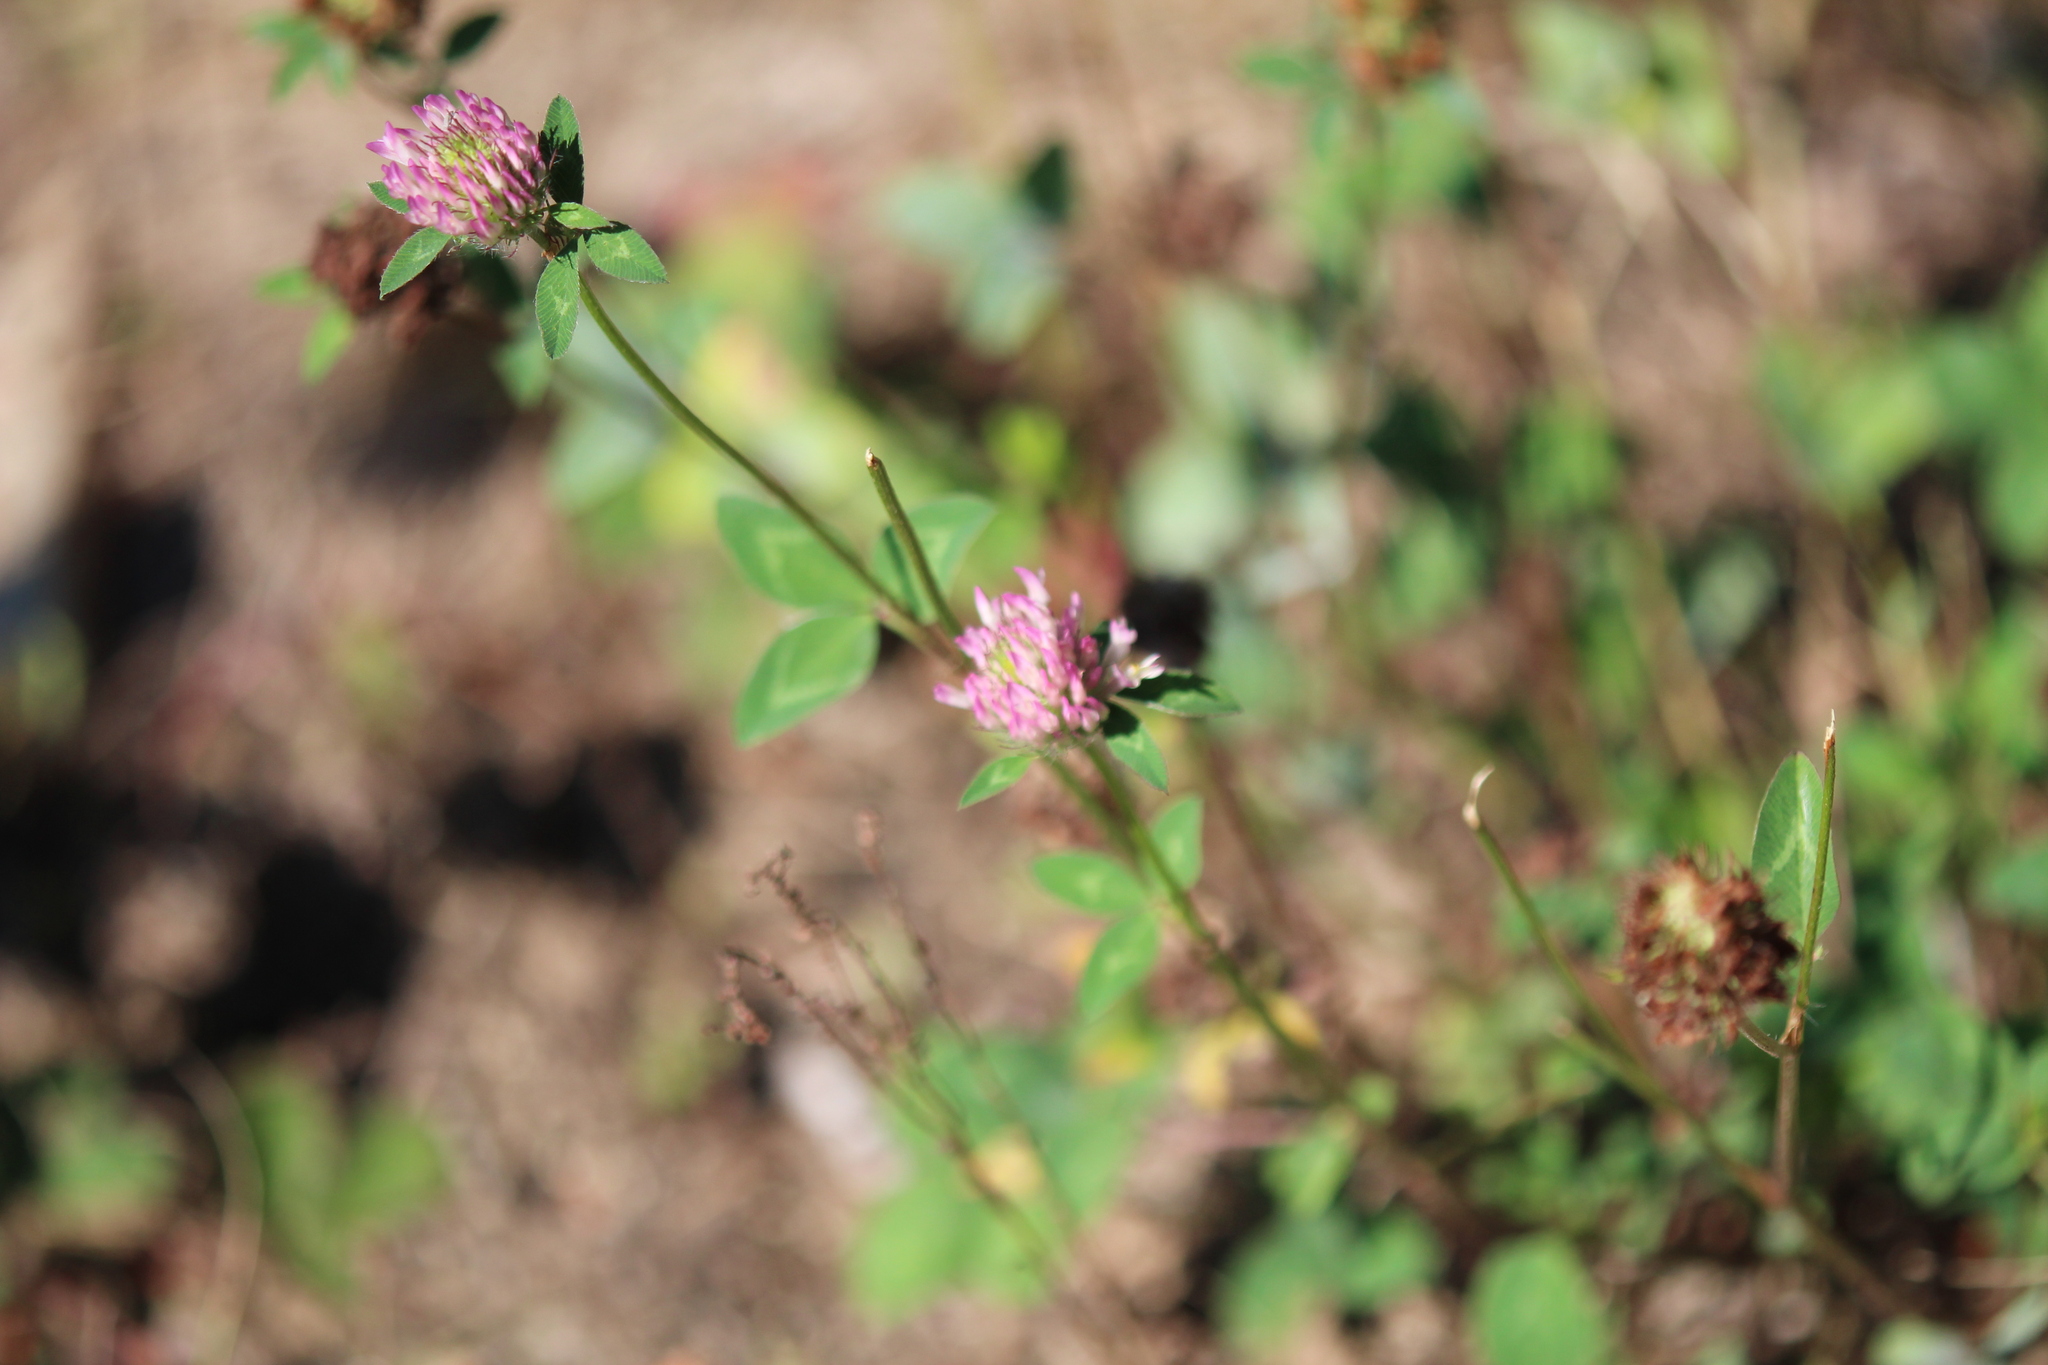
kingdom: Plantae
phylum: Tracheophyta
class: Magnoliopsida
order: Fabales
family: Fabaceae
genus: Trifolium
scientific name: Trifolium pratense
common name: Red clover
